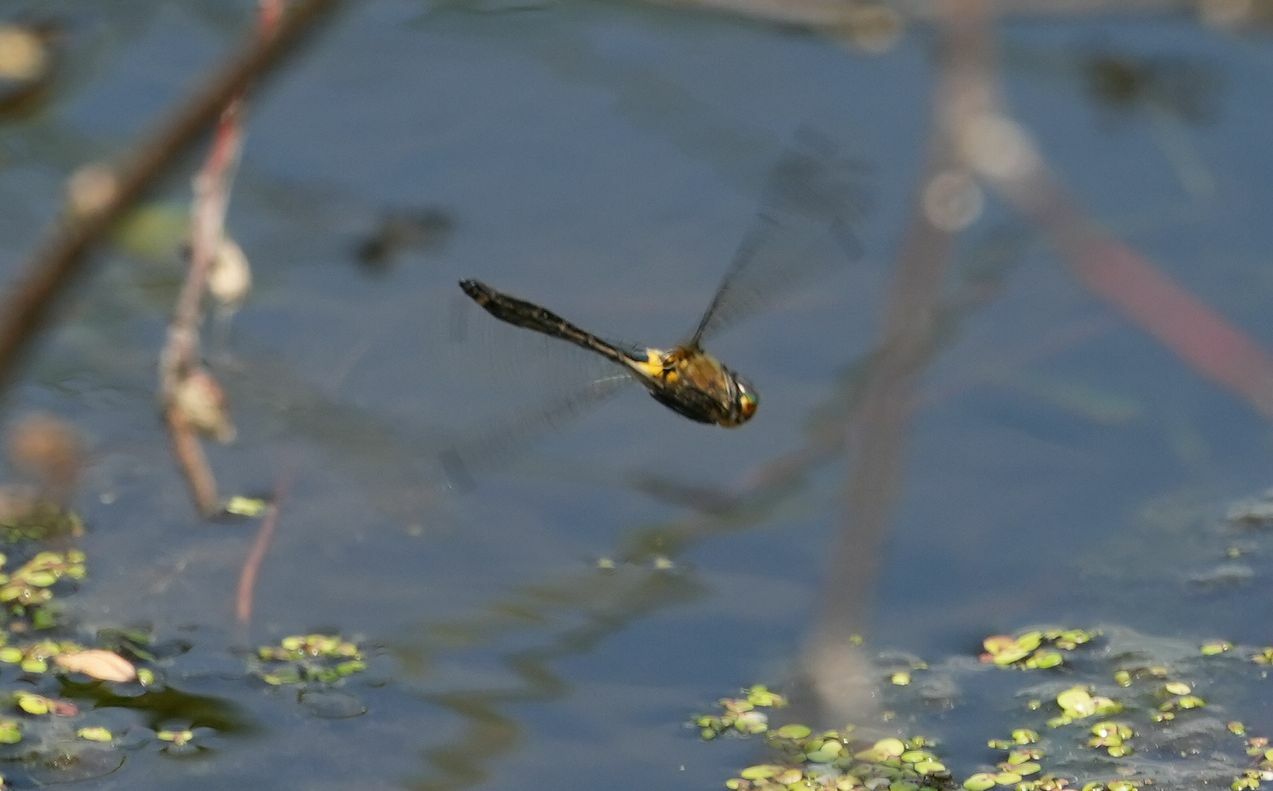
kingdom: Animalia
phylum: Arthropoda
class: Insecta
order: Odonata
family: Corduliidae
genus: Dorocordulia
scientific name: Dorocordulia libera
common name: Racket-tailed emerald
